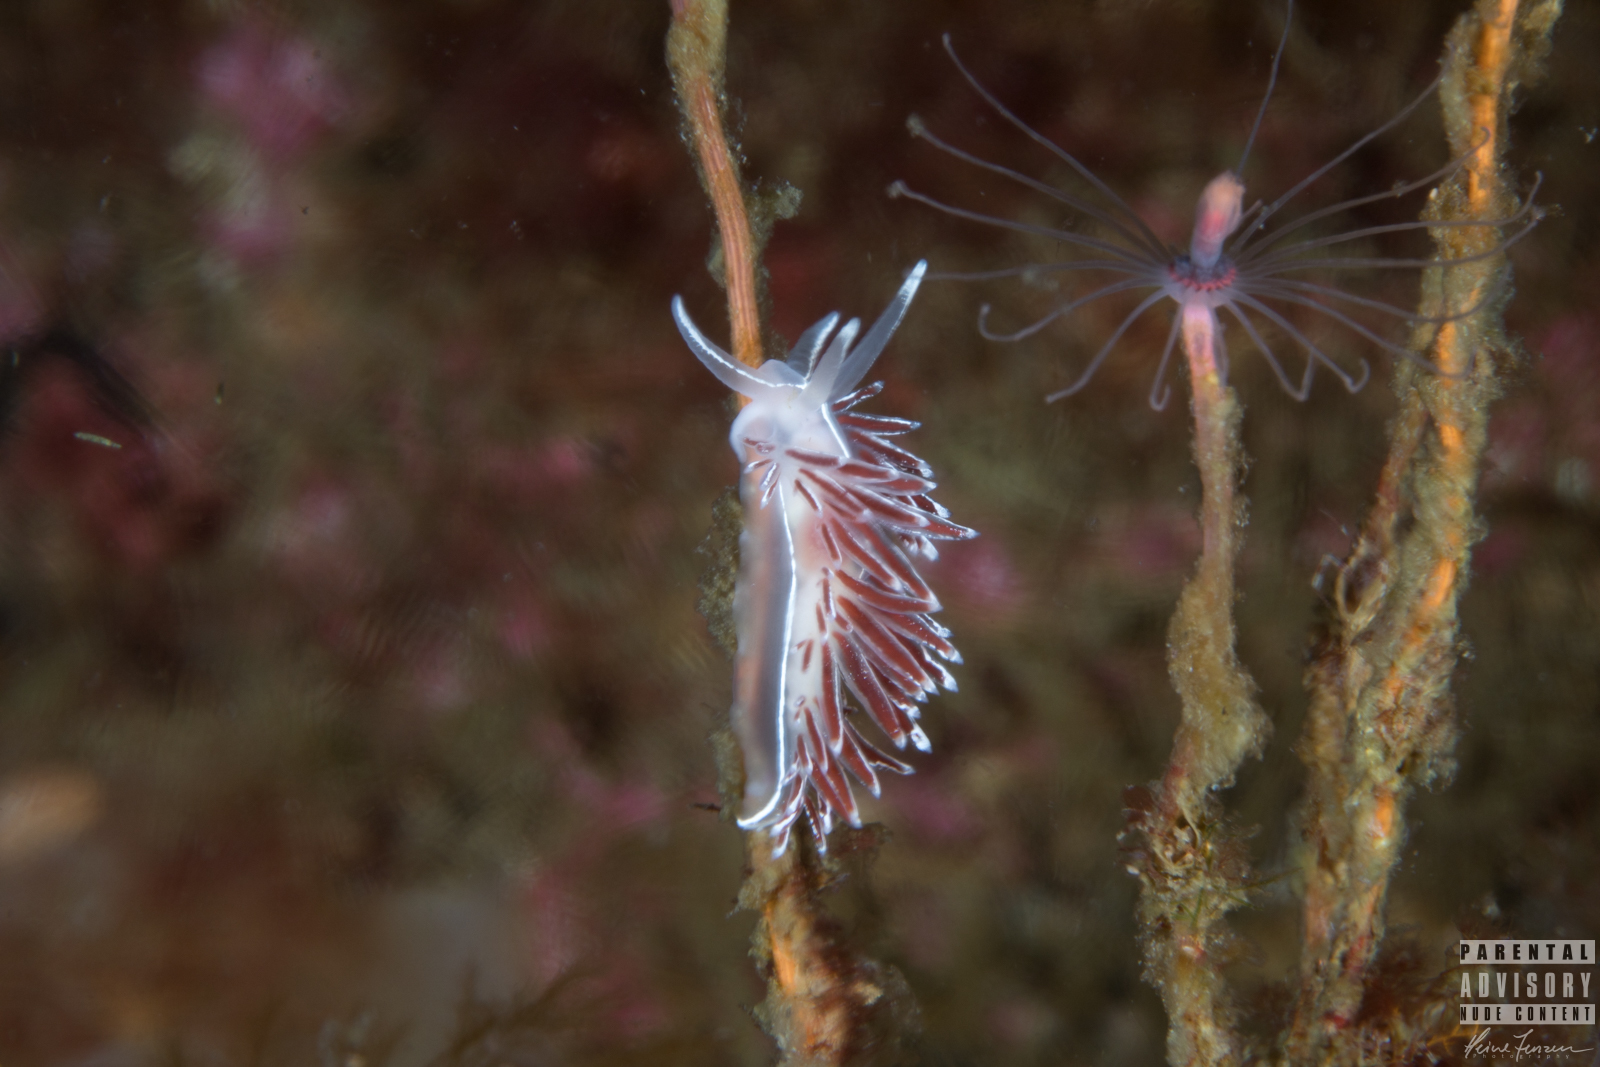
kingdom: Animalia
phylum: Mollusca
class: Gastropoda
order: Nudibranchia
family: Coryphellidae
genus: Coryphella
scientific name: Coryphella lineata
